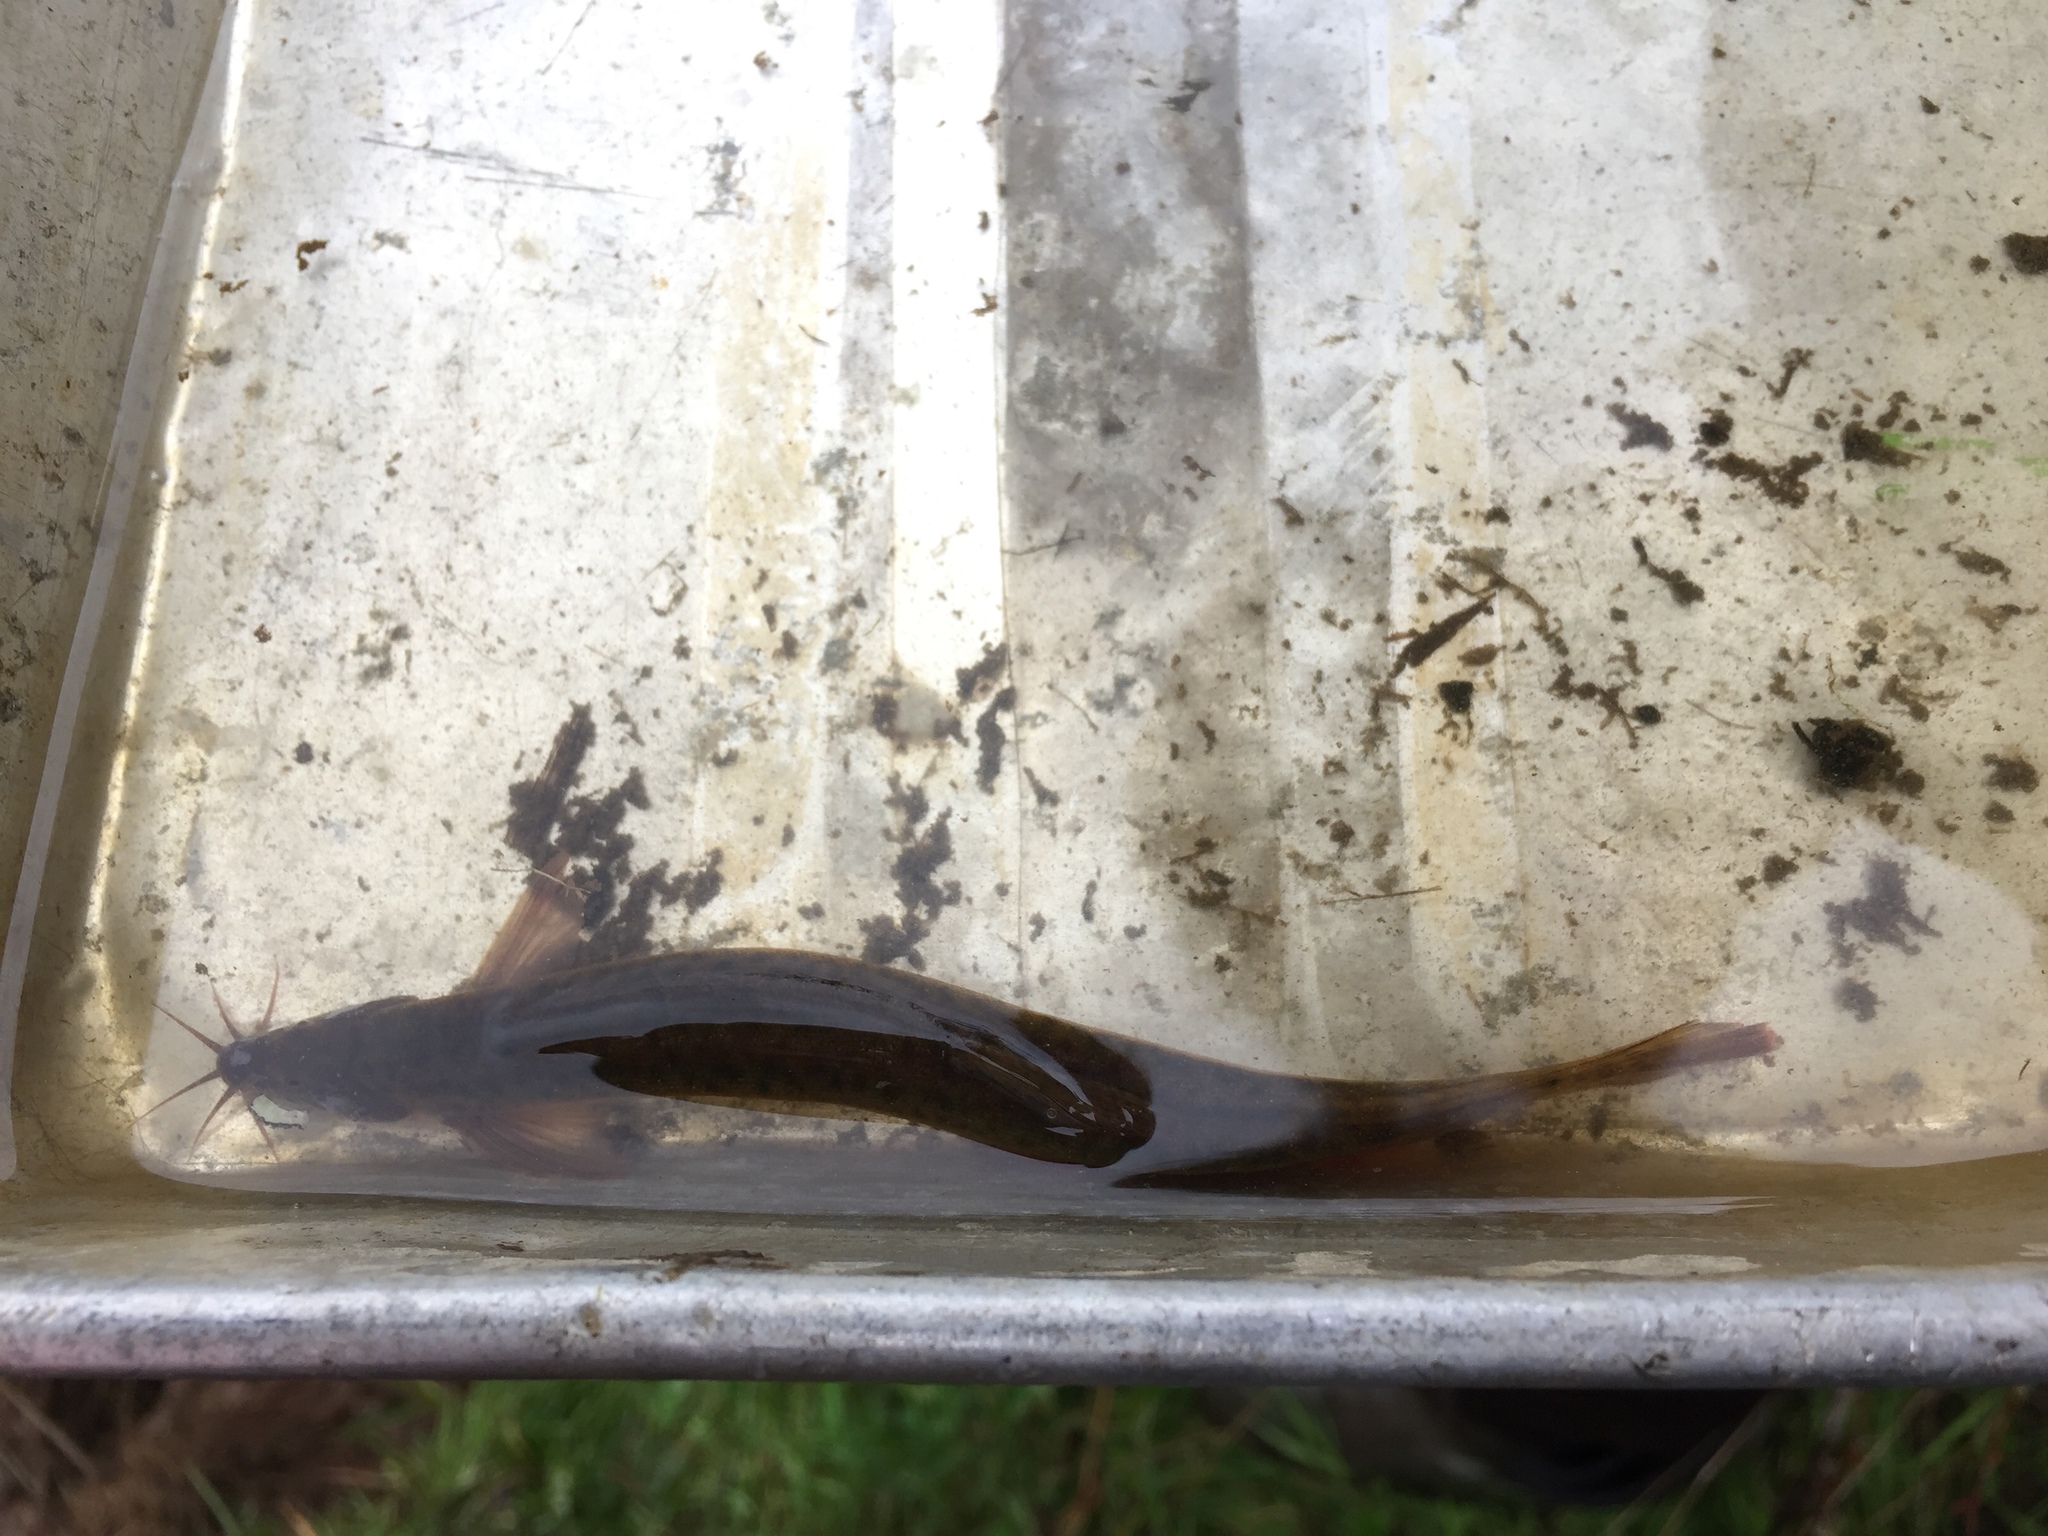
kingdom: Animalia
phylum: Chordata
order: Cypriniformes
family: Cobitidae
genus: Misgurnus
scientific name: Misgurnus anguillicaudatus
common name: Oriental weatherfish
